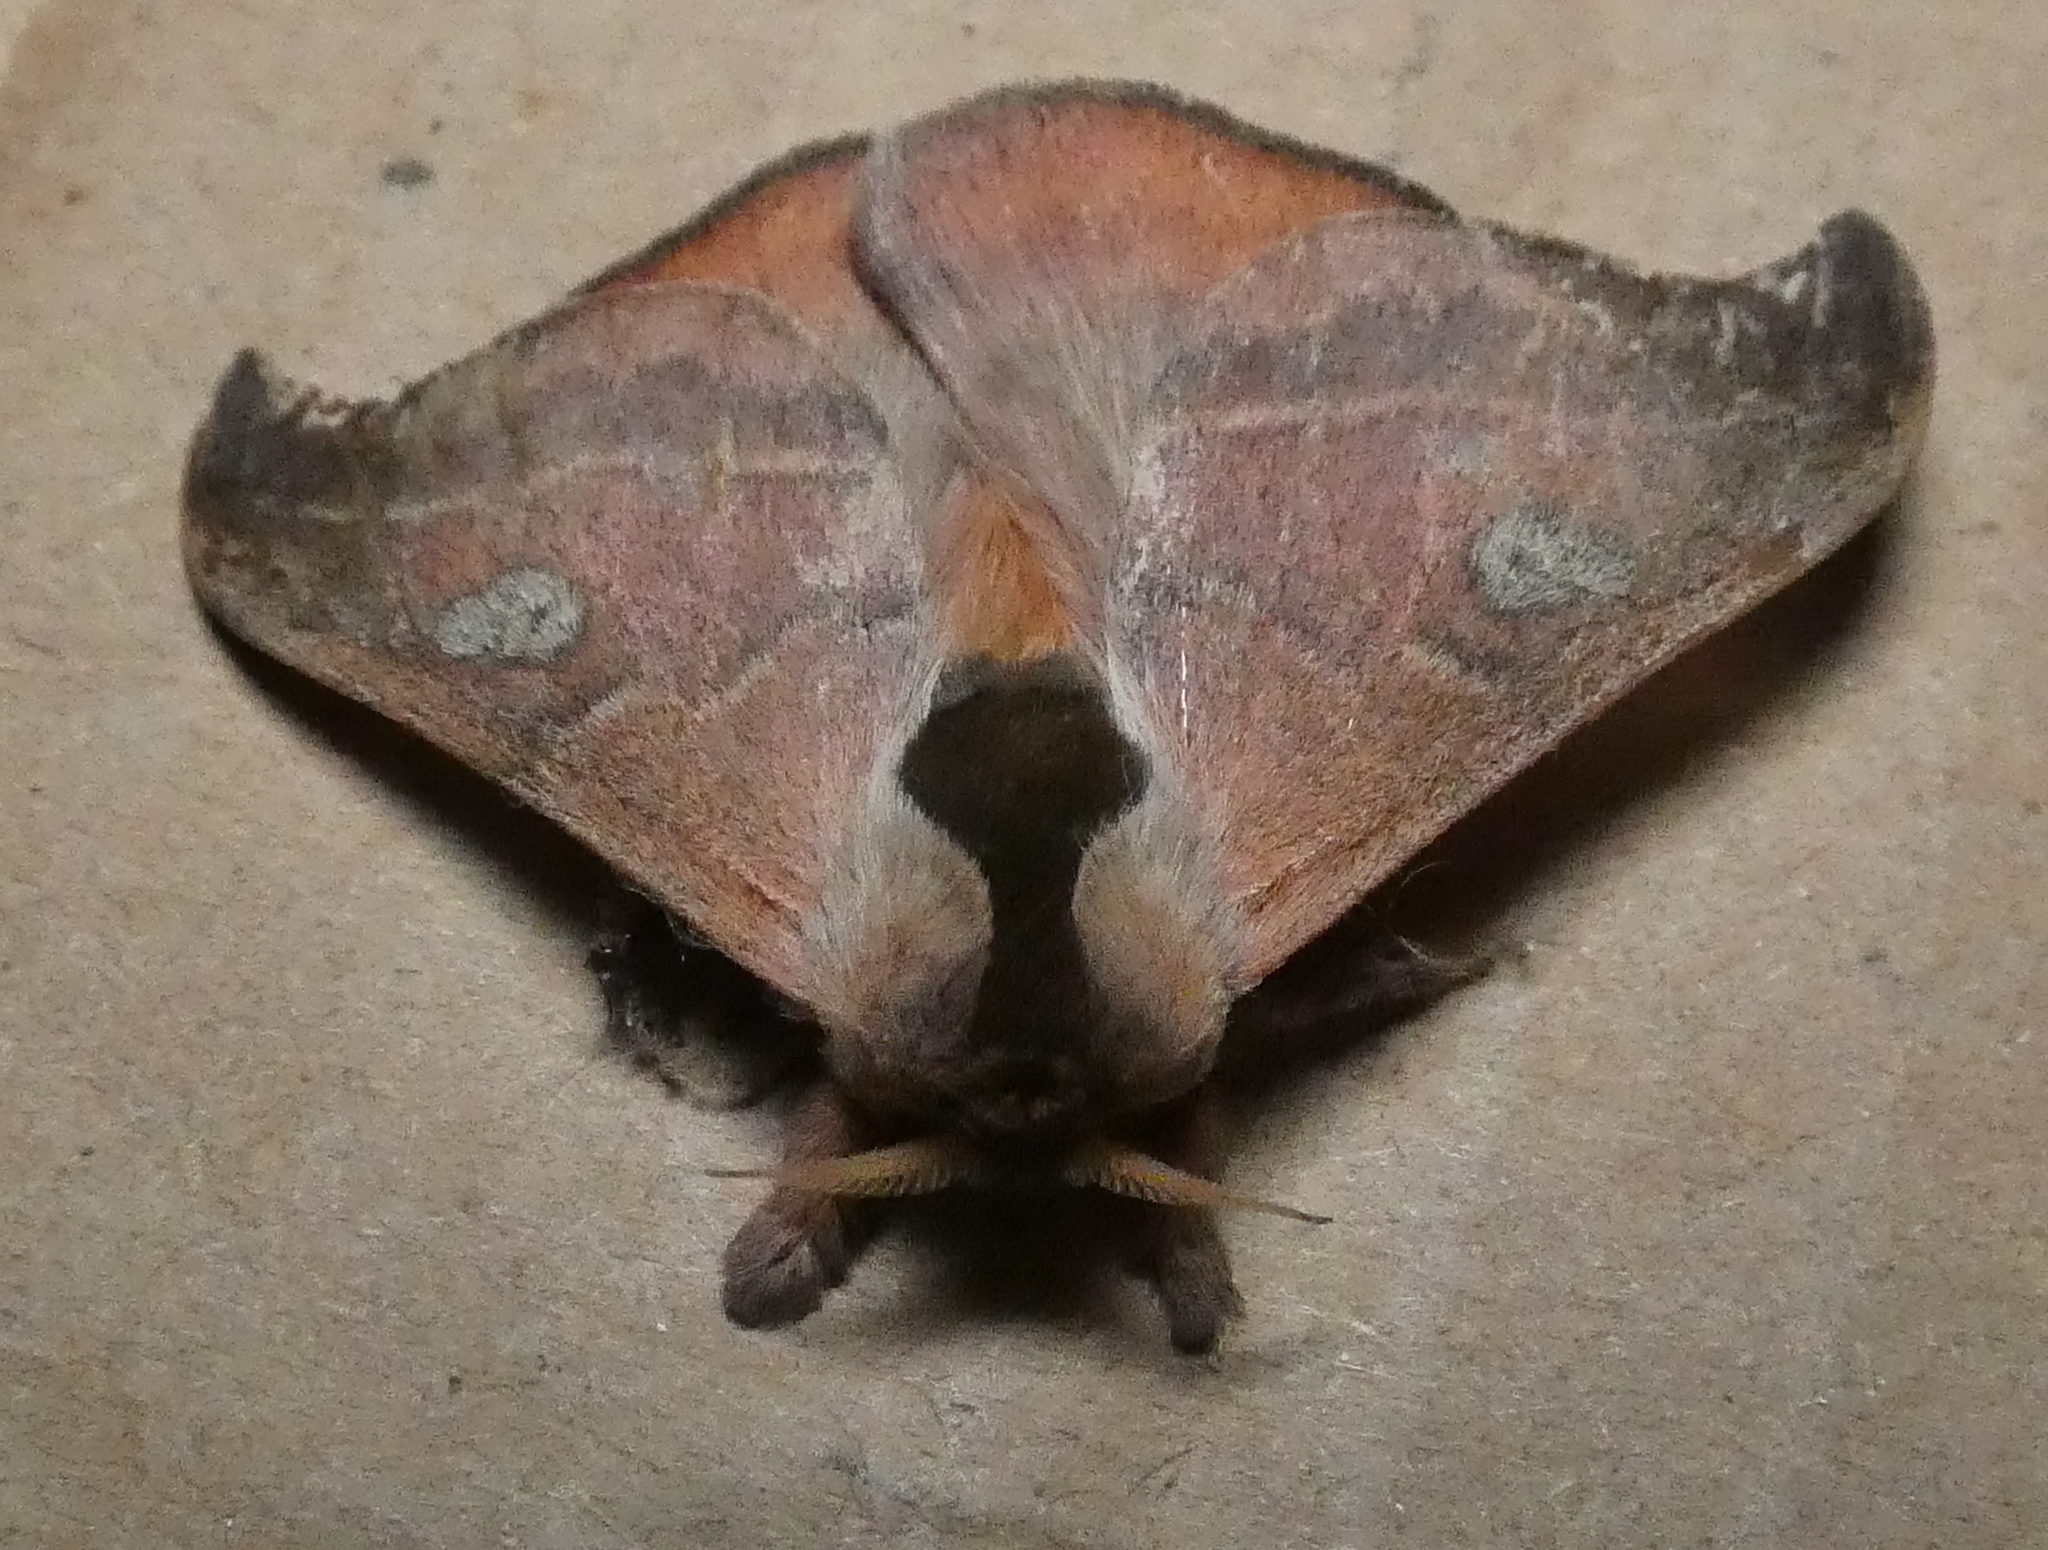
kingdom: Animalia
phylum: Arthropoda
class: Insecta
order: Lepidoptera
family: Saturniidae
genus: Hylesia
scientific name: Hylesia nanus
